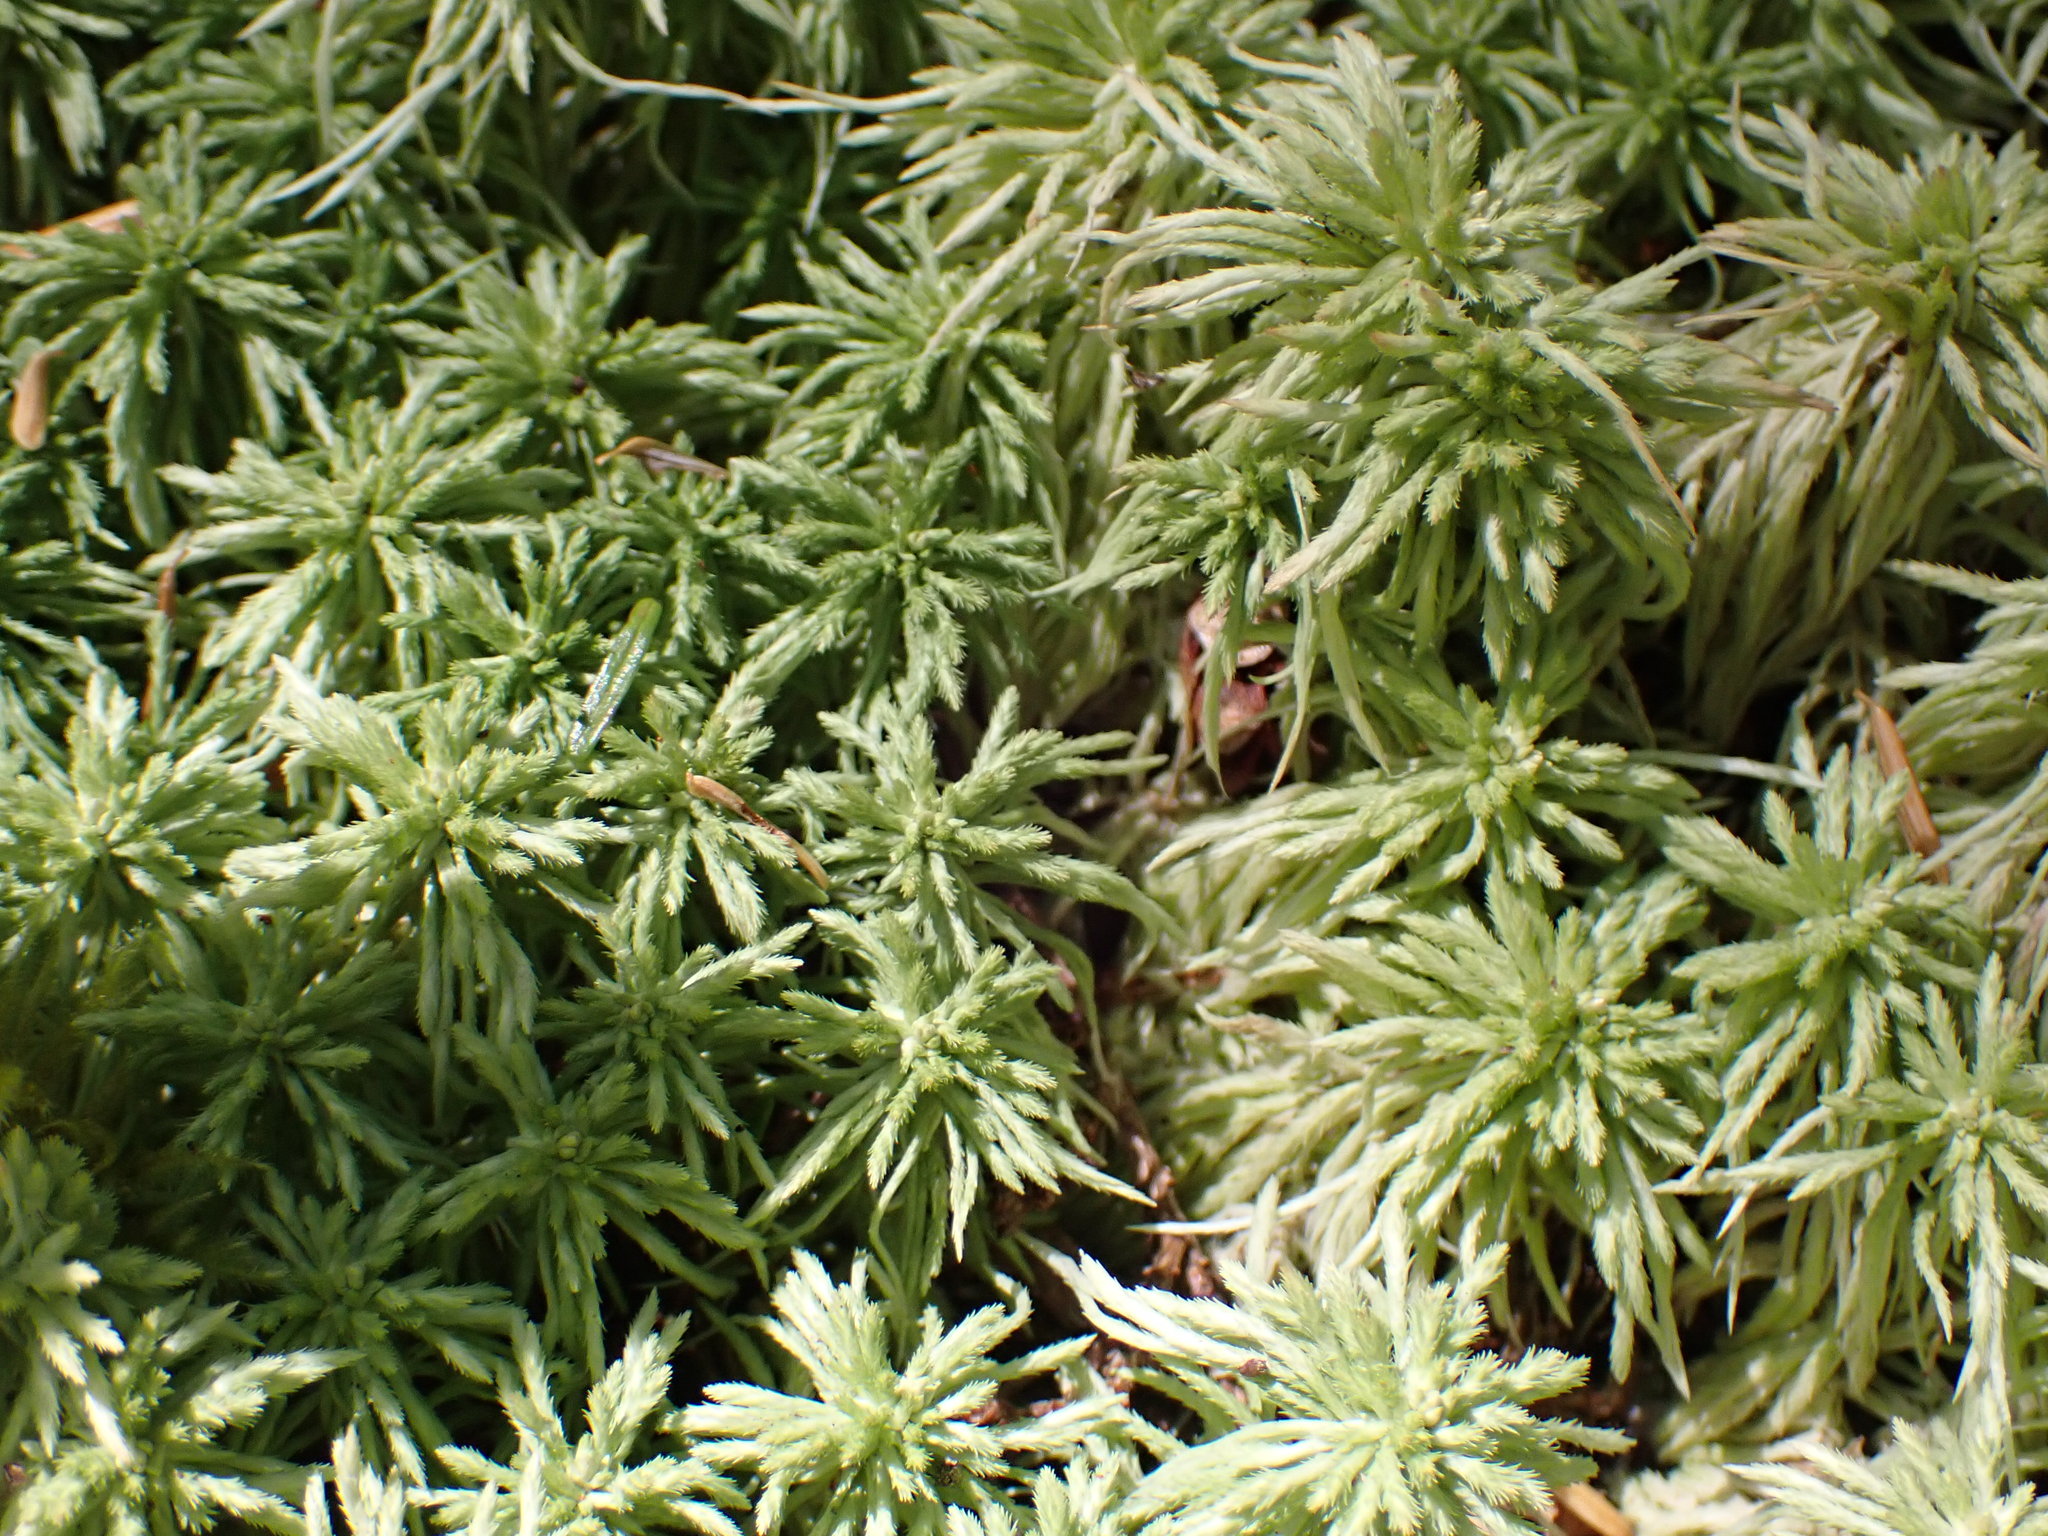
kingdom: Plantae
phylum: Bryophyta
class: Sphagnopsida
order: Sphagnales
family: Sphagnaceae
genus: Sphagnum
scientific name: Sphagnum rubiginosum
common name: Variegated peat moss
